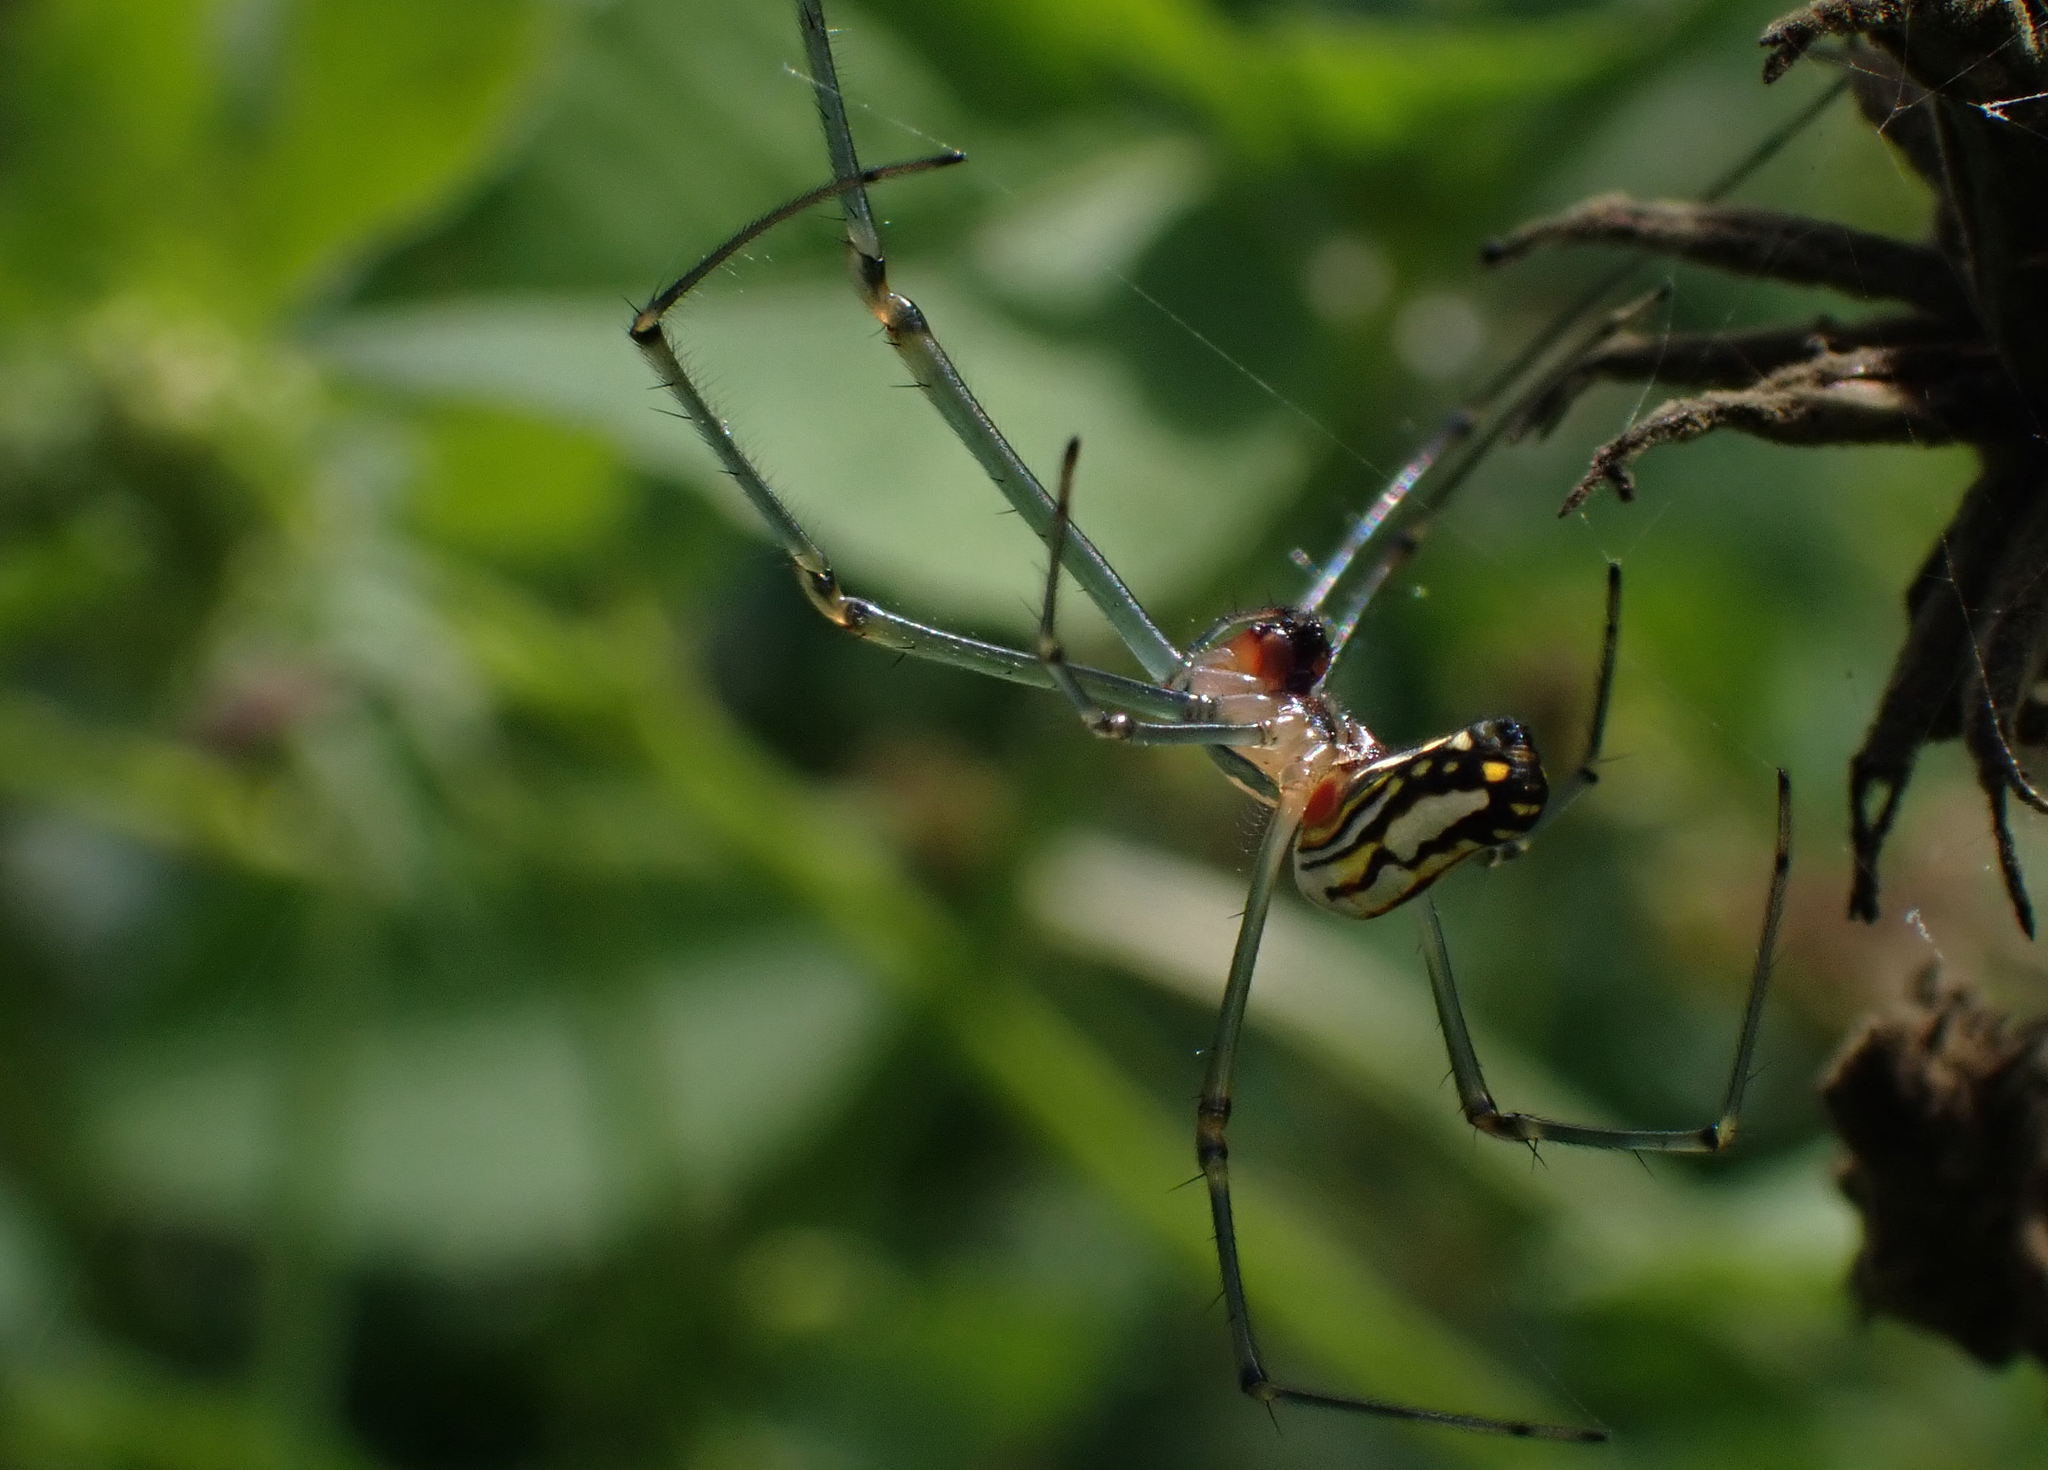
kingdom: Animalia
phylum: Arthropoda
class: Arachnida
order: Araneae
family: Tetragnathidae
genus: Leucauge
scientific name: Leucauge argyra
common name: Longjawed orb weavers
